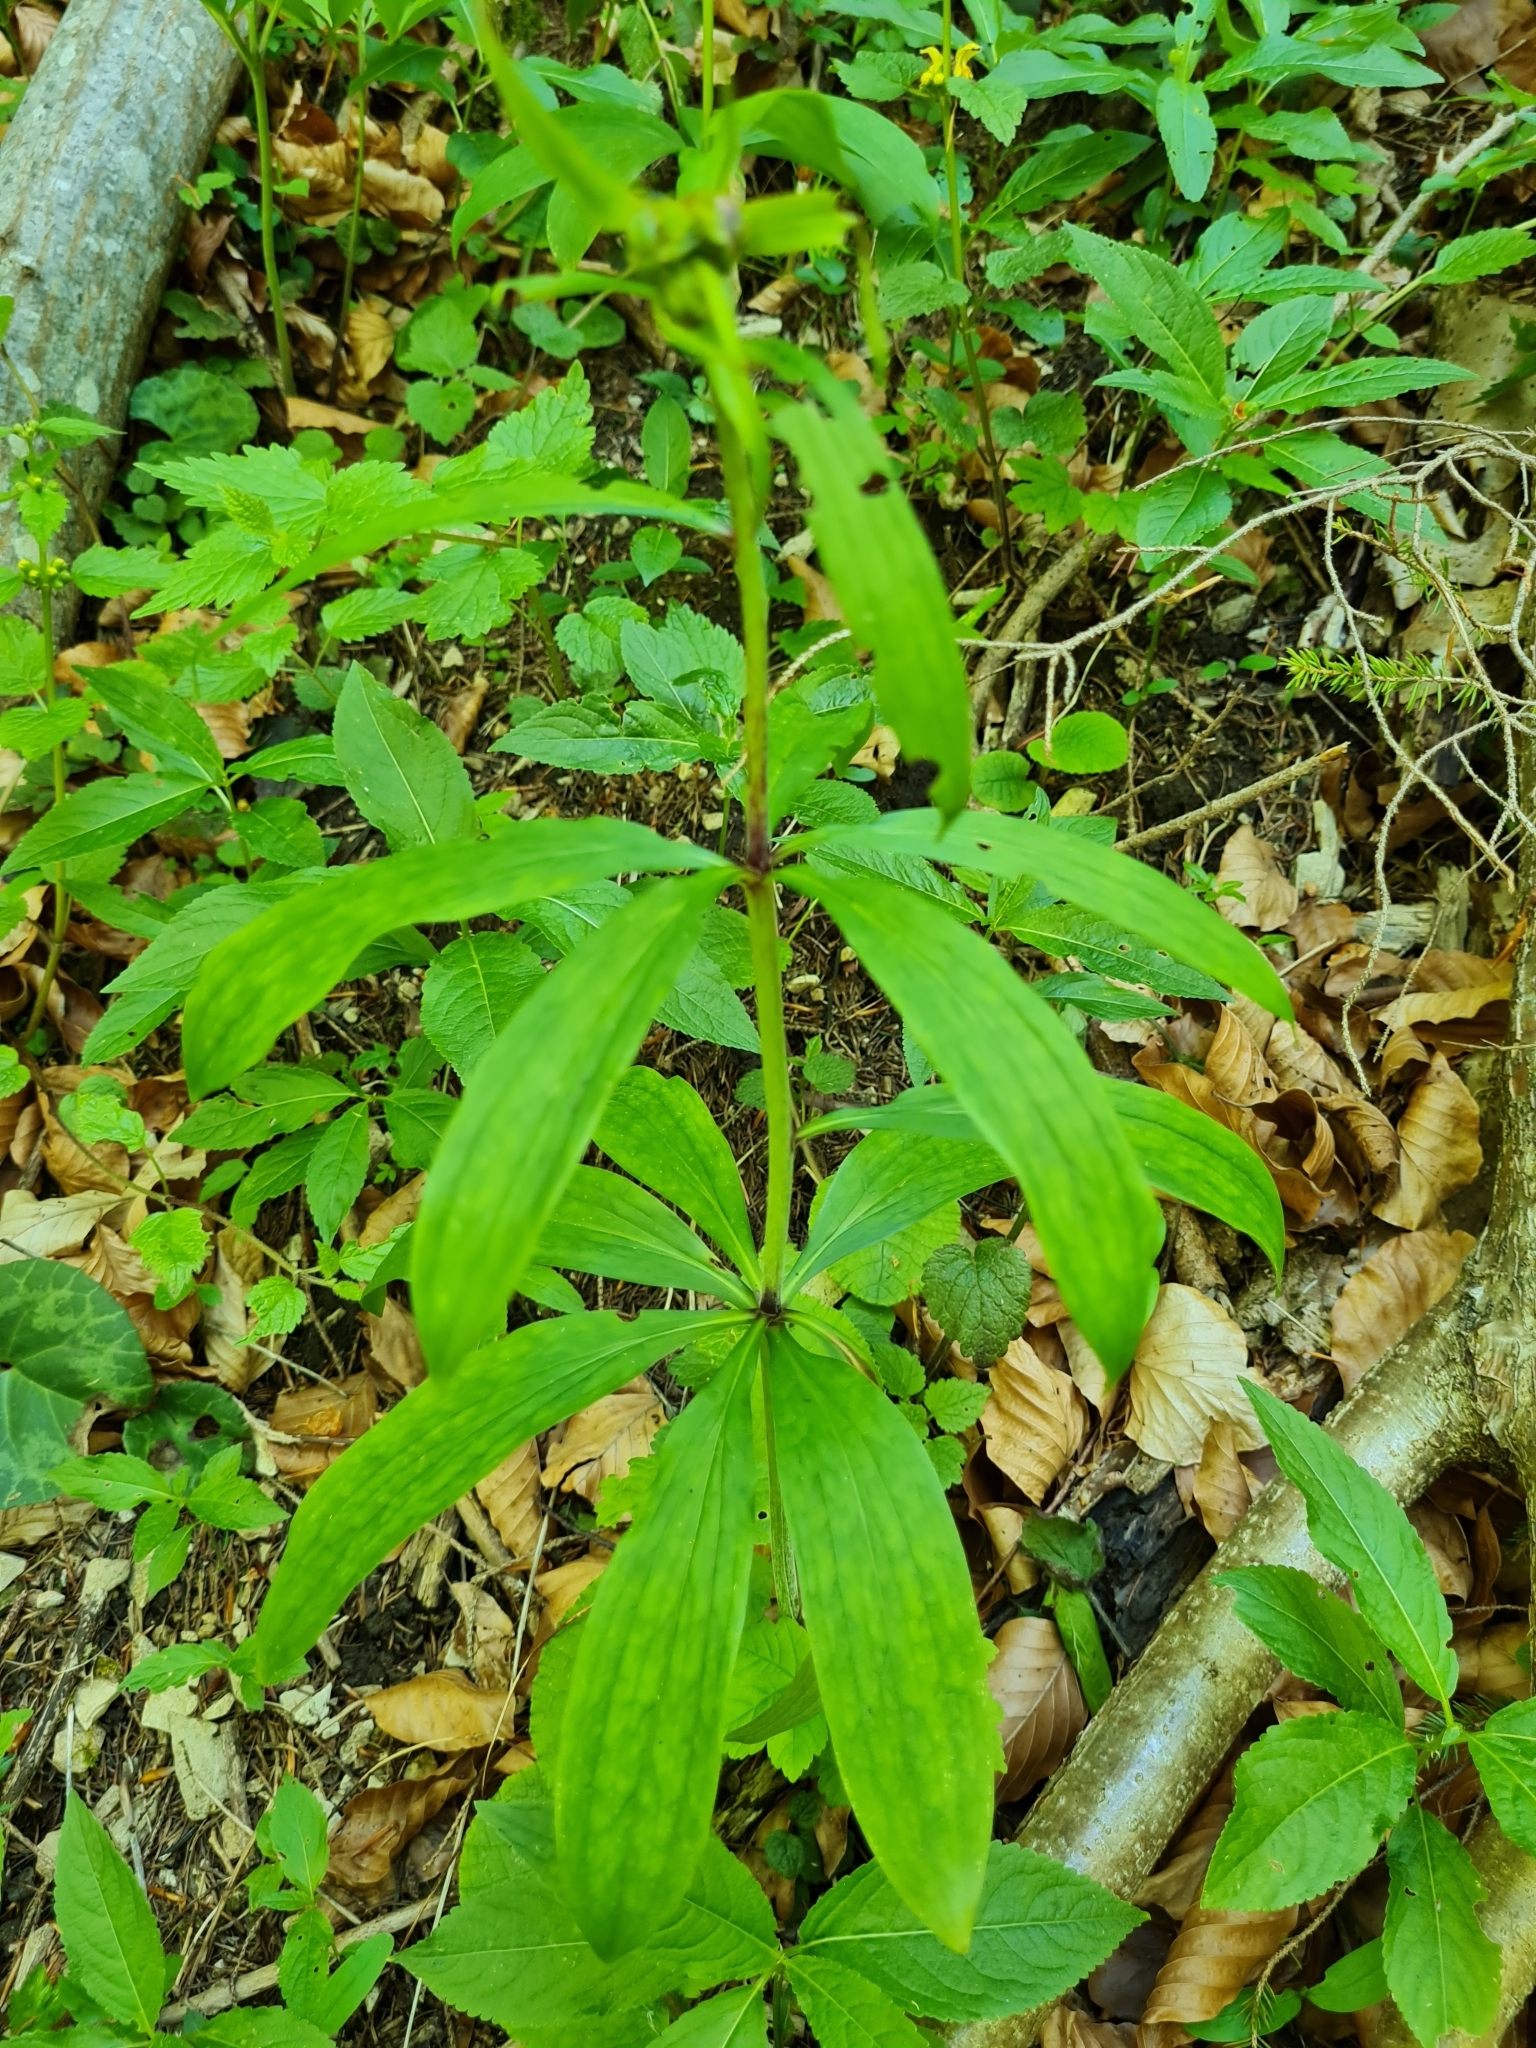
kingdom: Plantae
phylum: Tracheophyta
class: Liliopsida
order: Liliales
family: Liliaceae
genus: Lilium
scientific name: Lilium martagon
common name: Martagon lily
